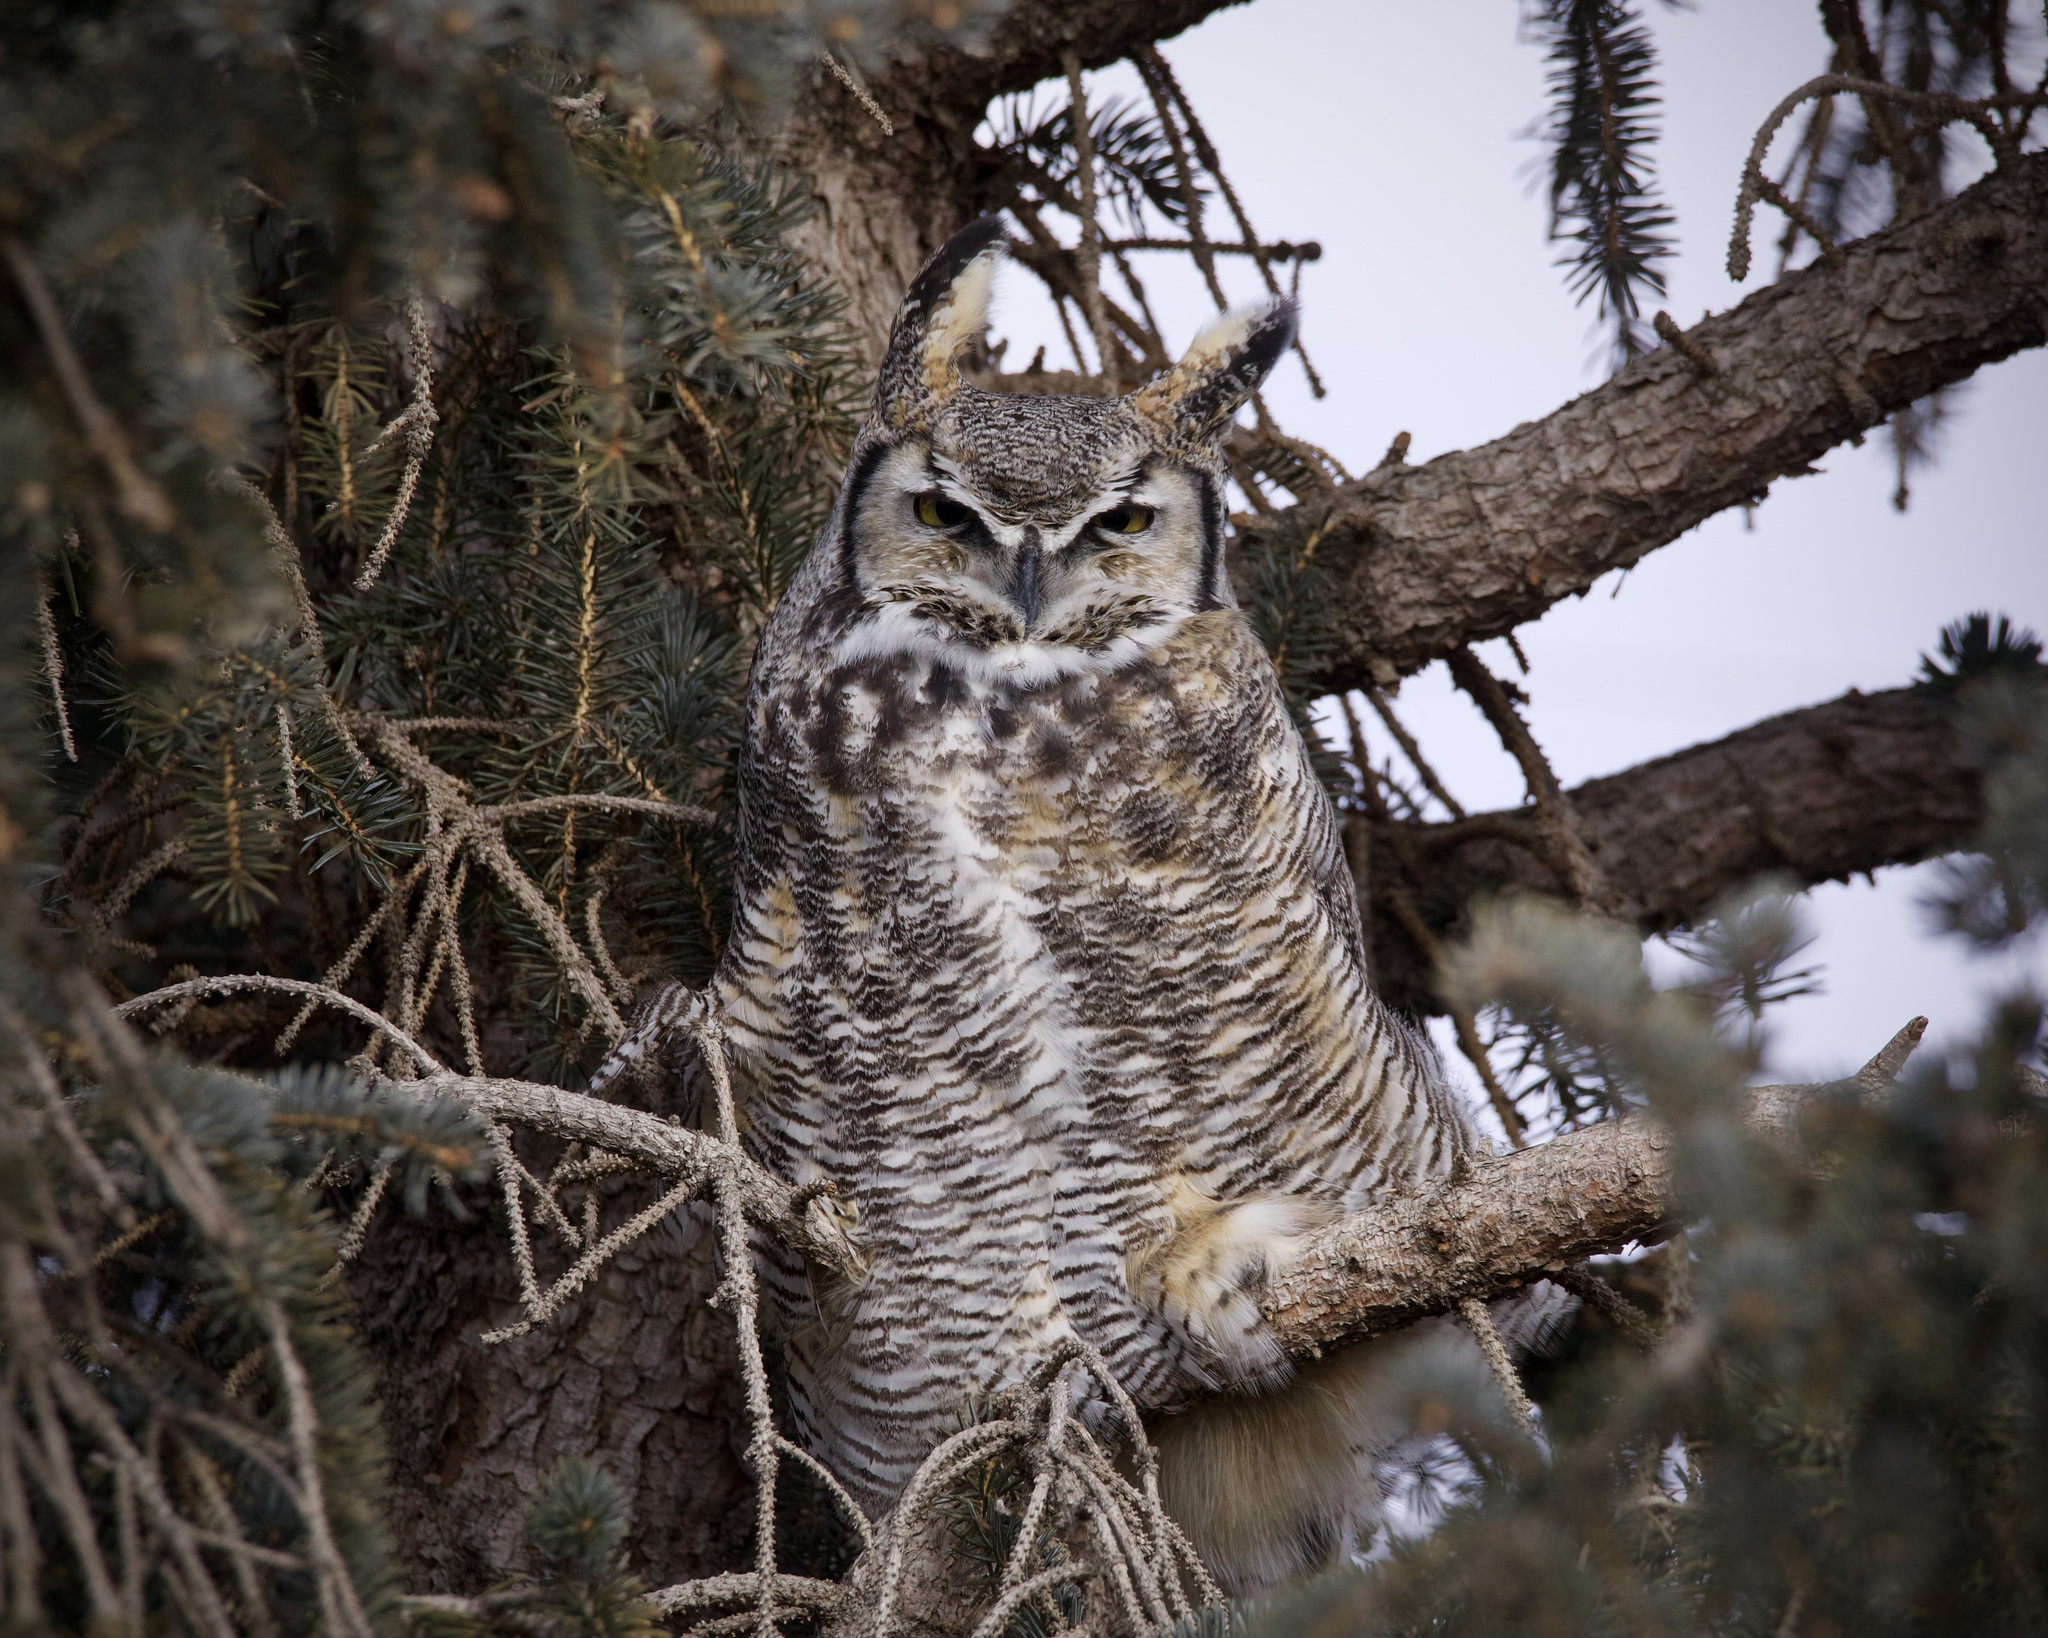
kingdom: Animalia
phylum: Chordata
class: Aves
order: Strigiformes
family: Strigidae
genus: Bubo
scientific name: Bubo virginianus
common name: Great horned owl
